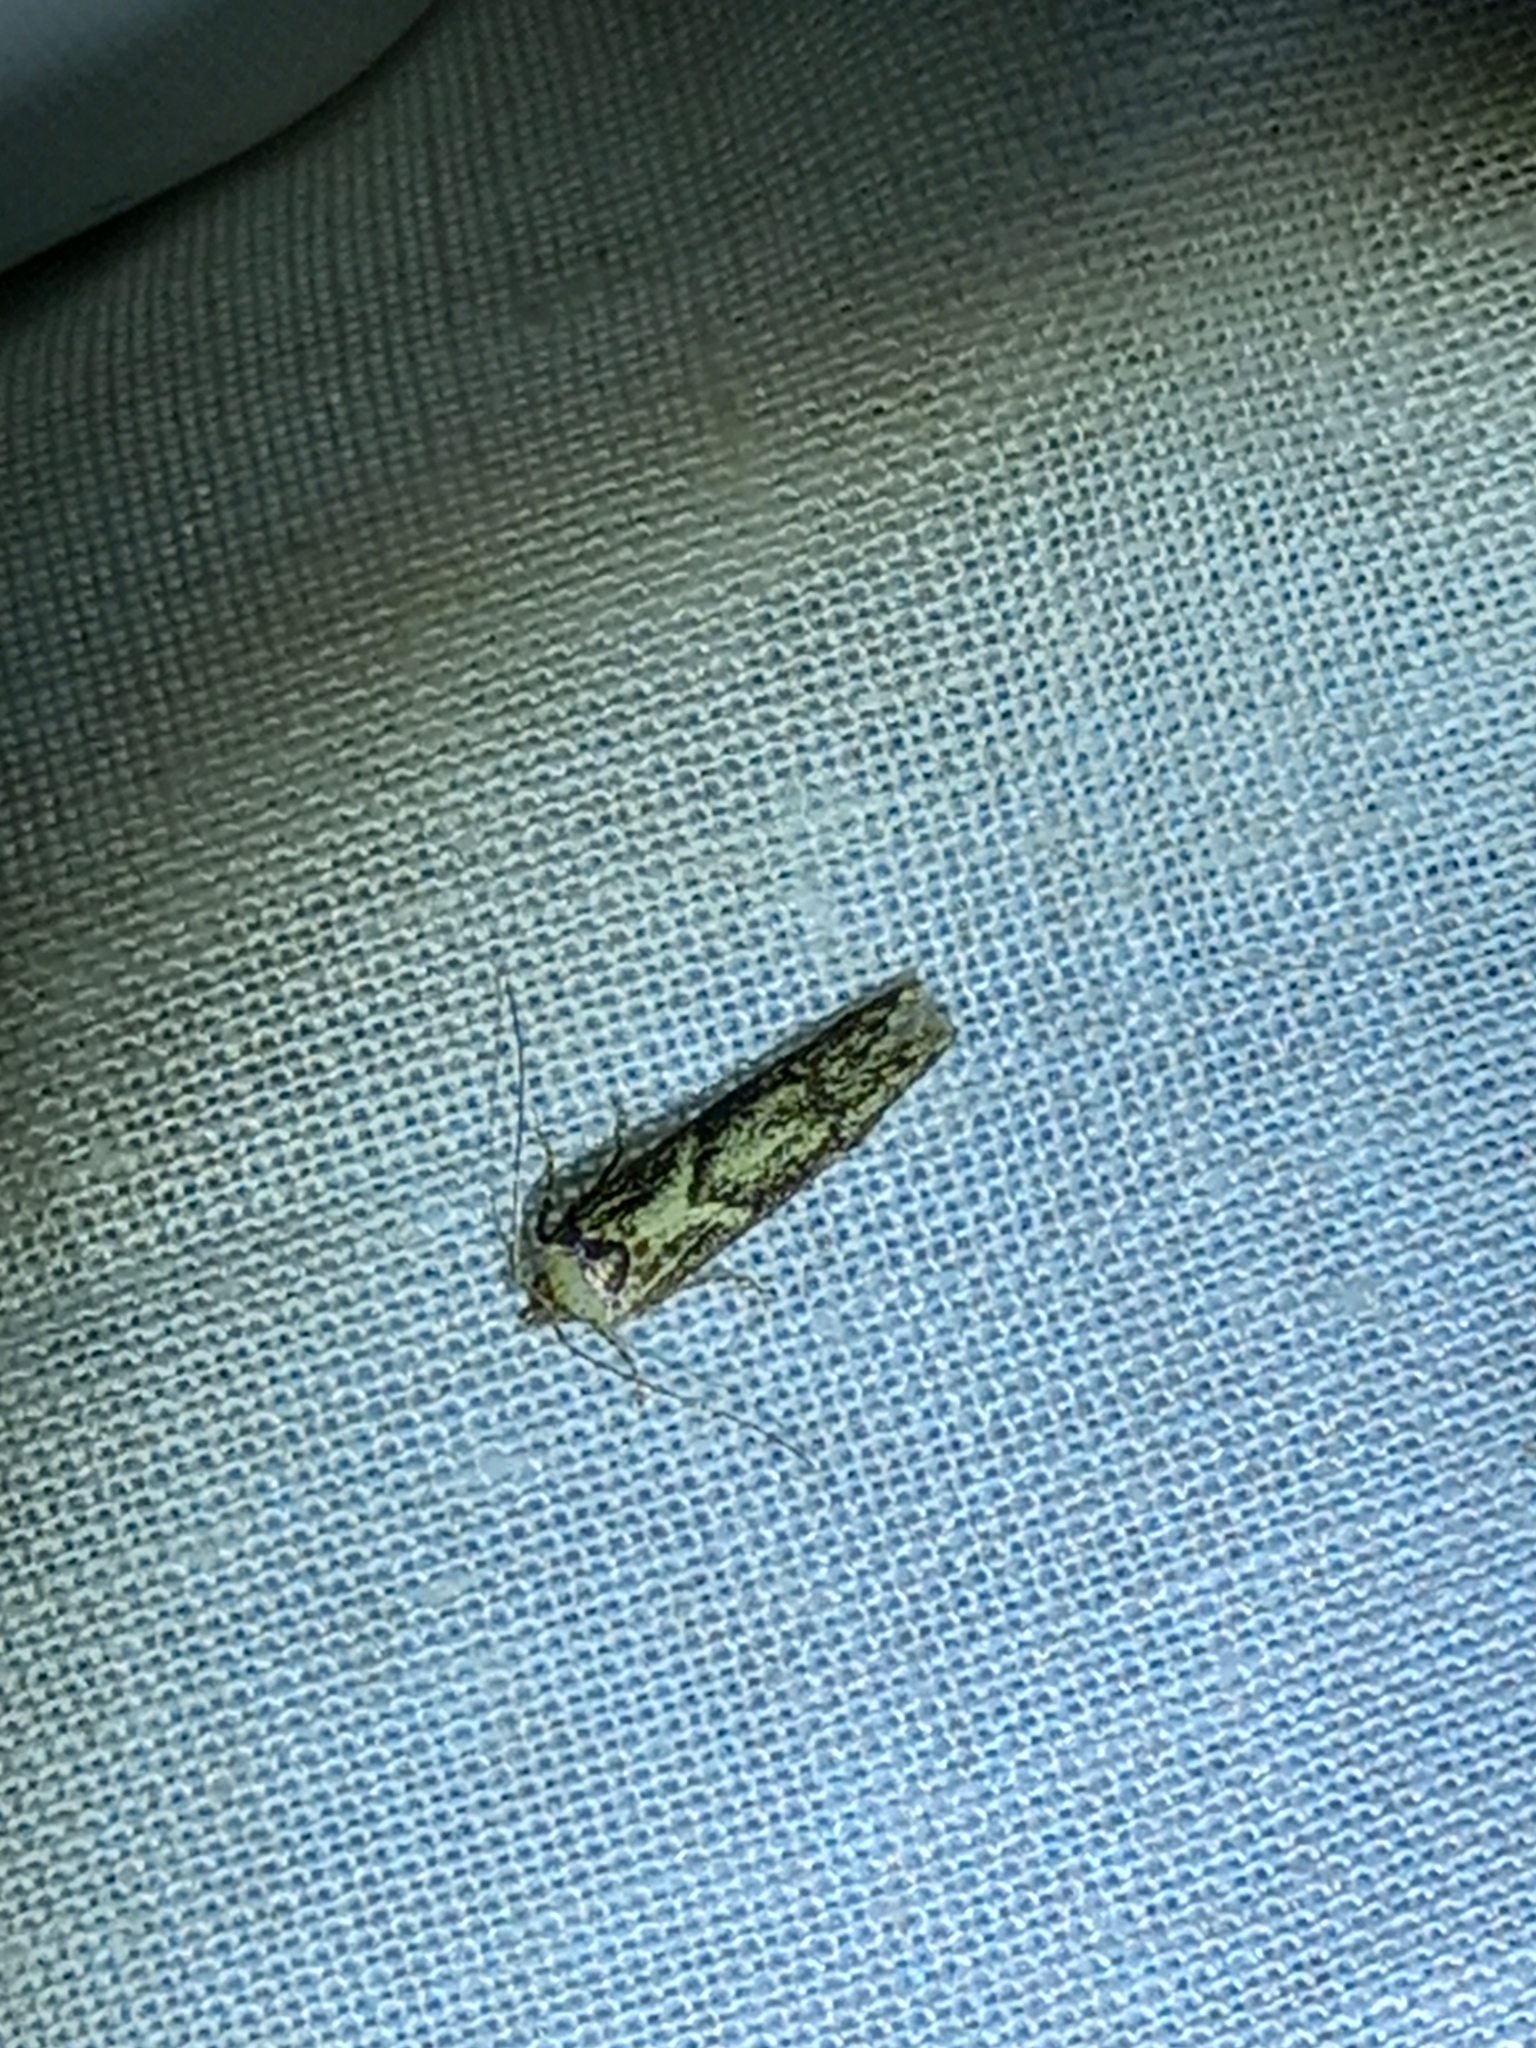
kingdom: Animalia
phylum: Arthropoda
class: Insecta
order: Lepidoptera
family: Blastobasidae
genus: Blastobasis
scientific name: Blastobasis adustella
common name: Dingy dowd
